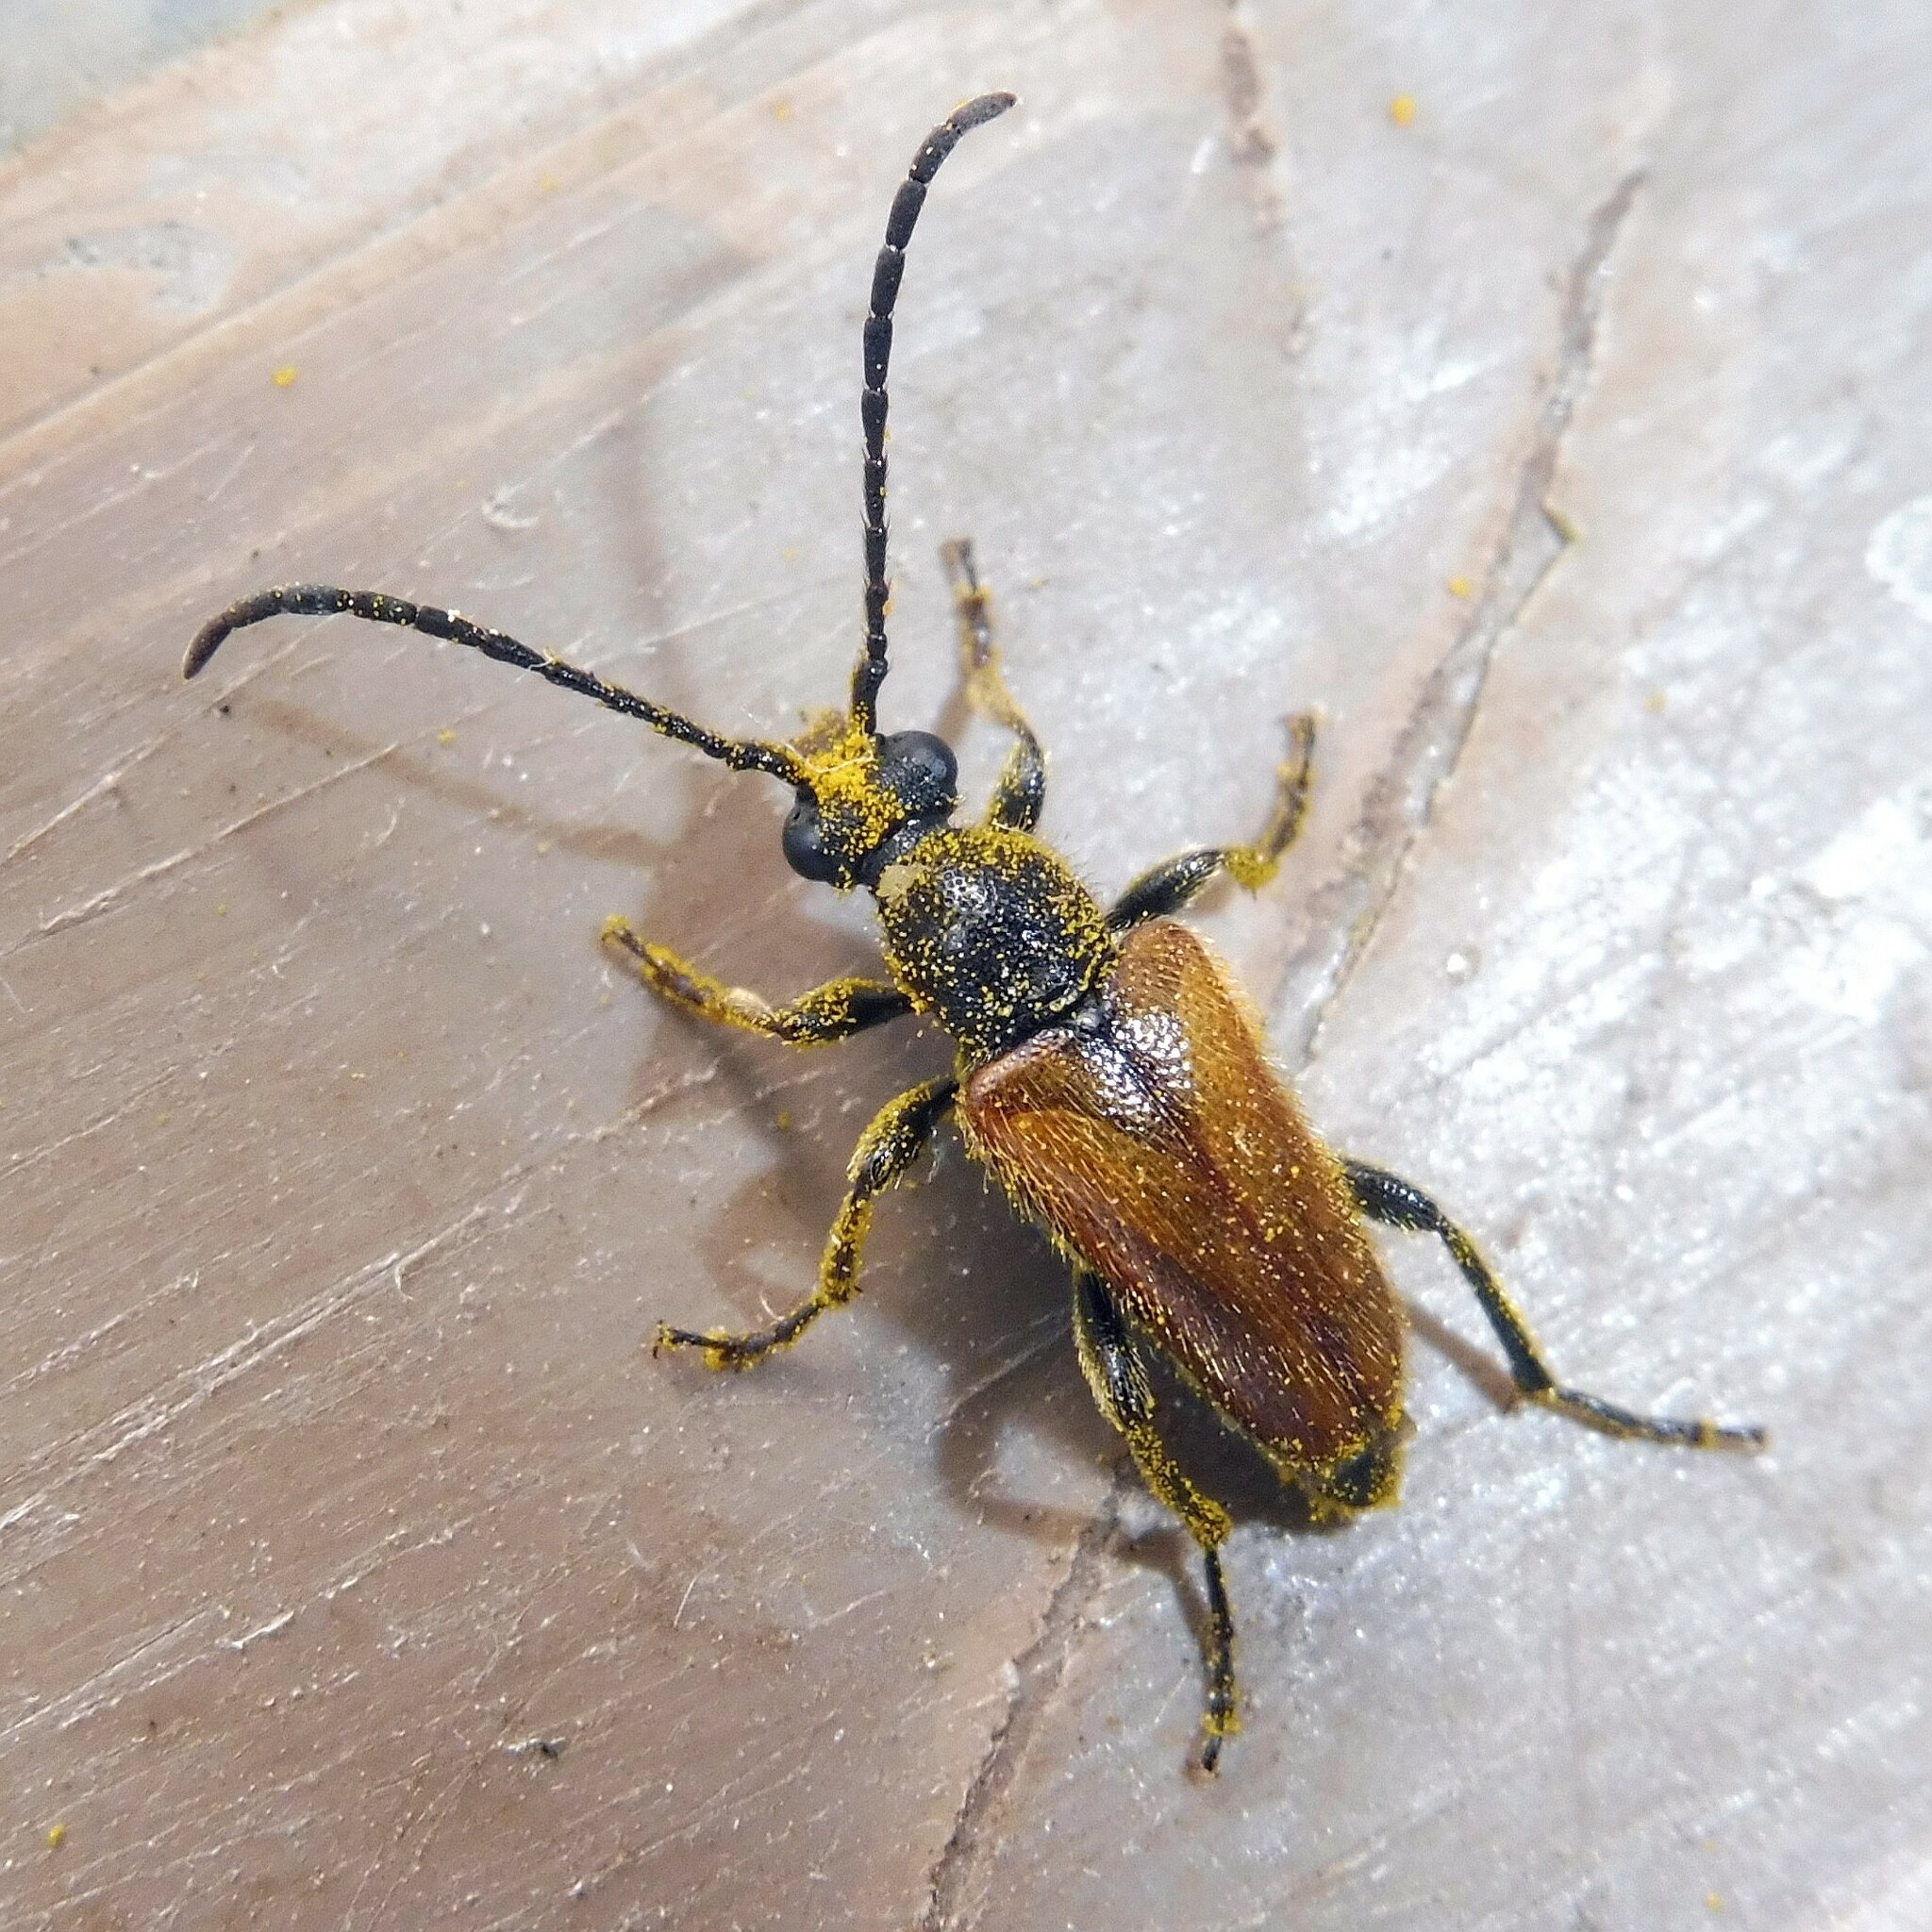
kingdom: Animalia
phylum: Arthropoda
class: Insecta
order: Coleoptera
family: Cerambycidae
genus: Pseudovadonia
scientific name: Pseudovadonia livida
